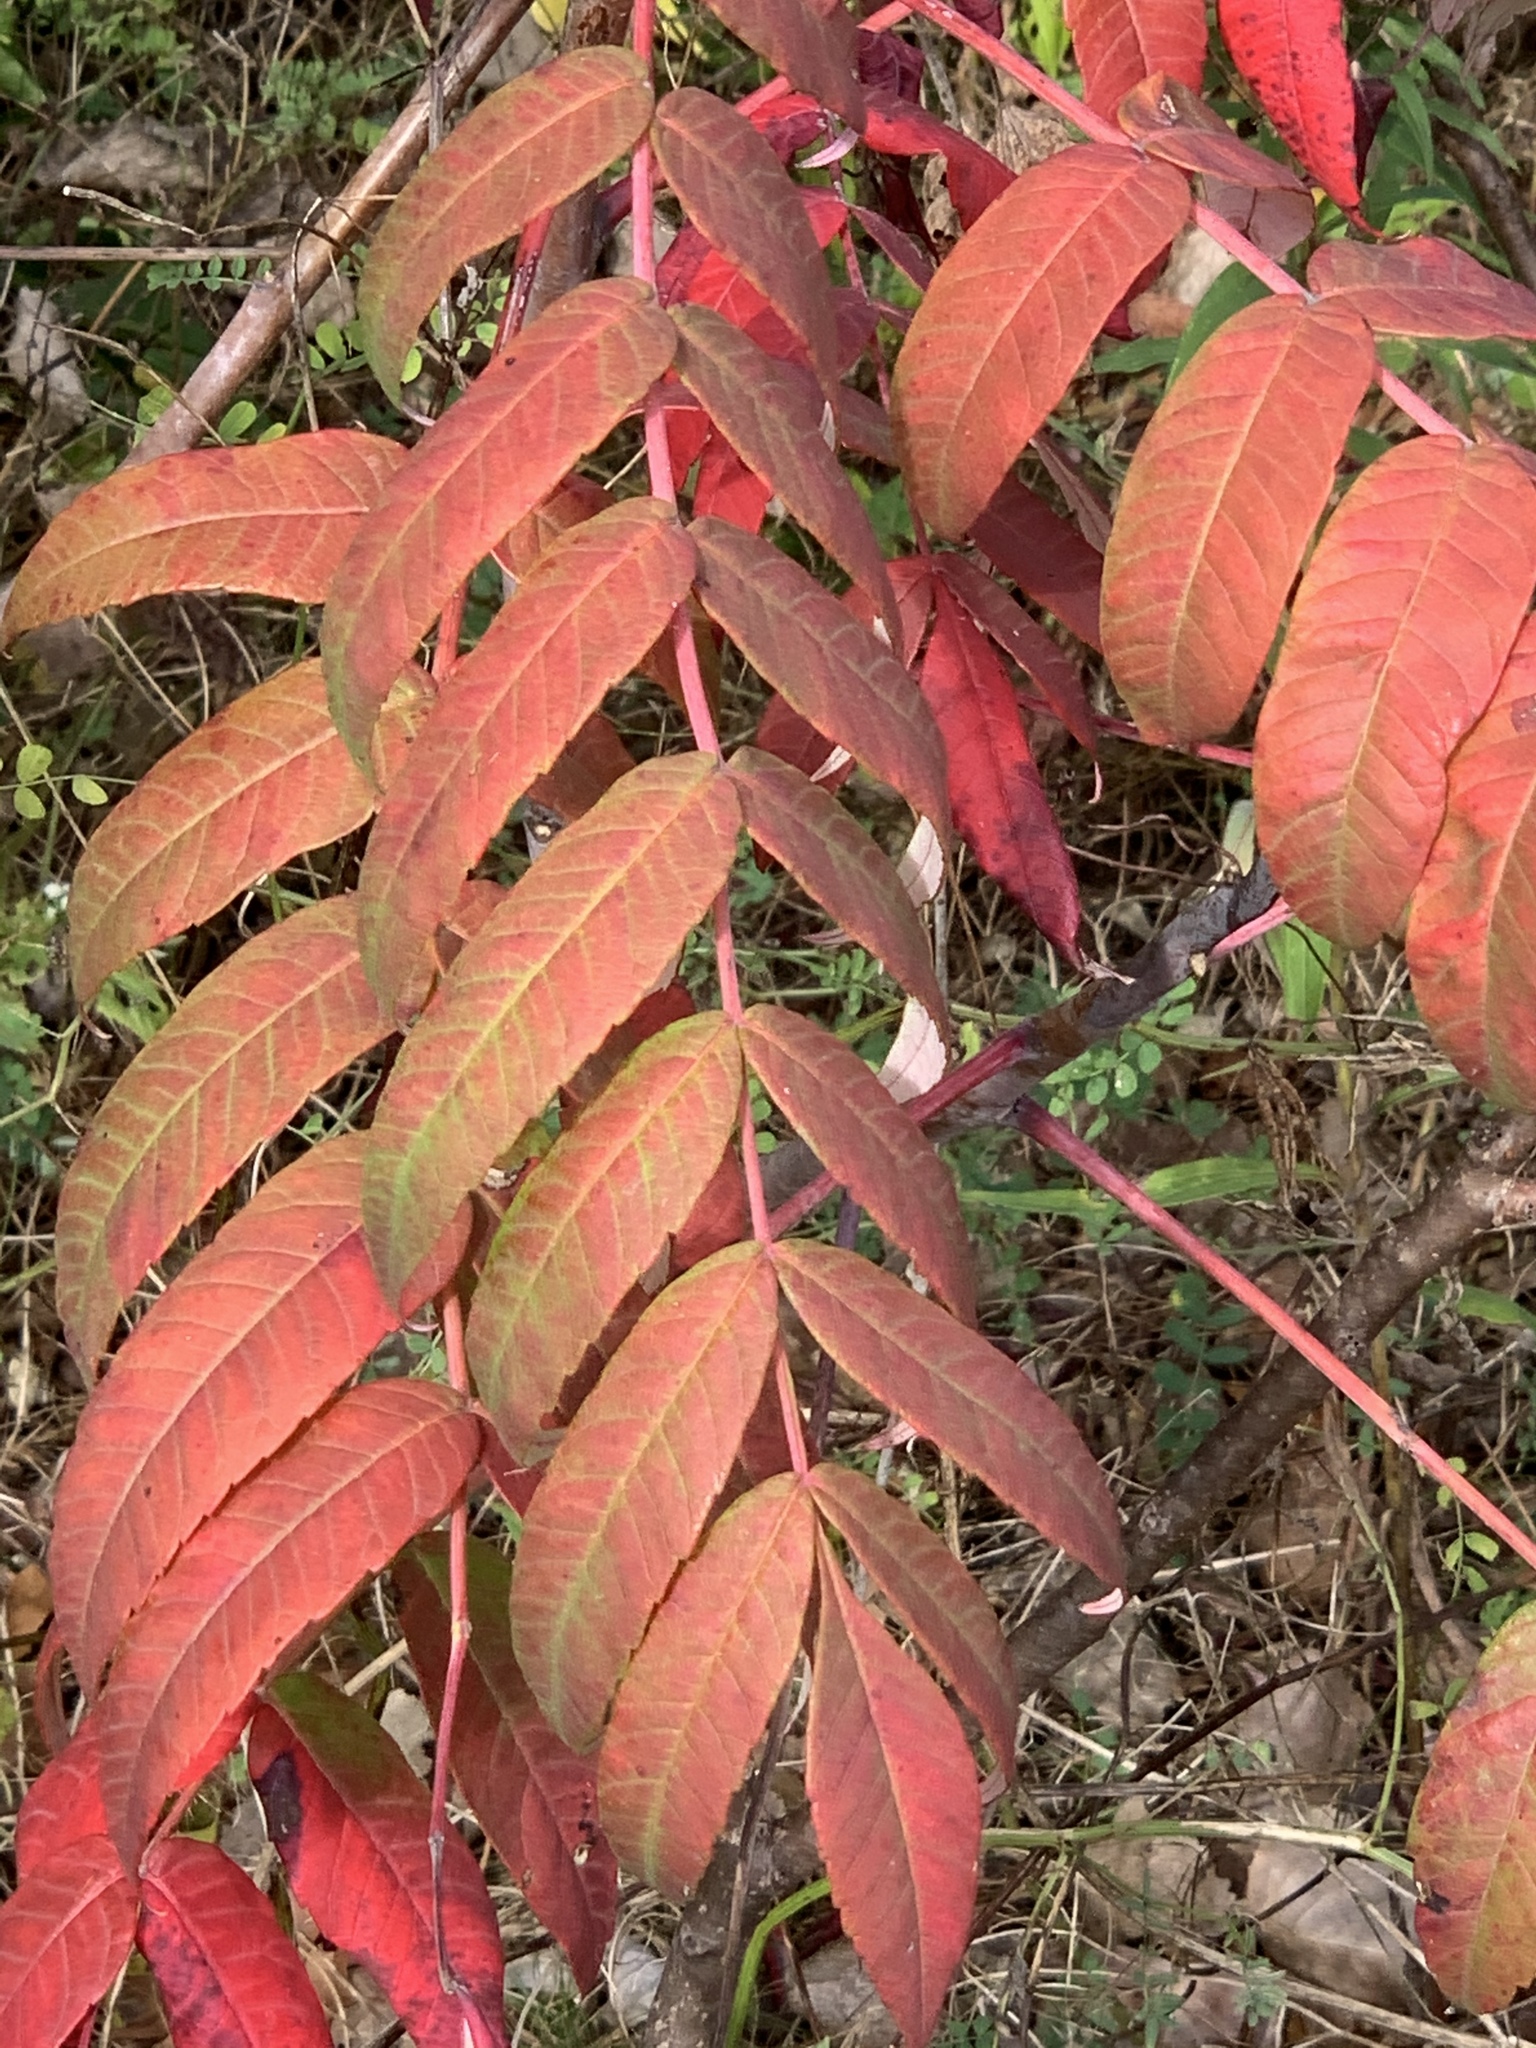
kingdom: Plantae
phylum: Tracheophyta
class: Magnoliopsida
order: Sapindales
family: Anacardiaceae
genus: Rhus
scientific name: Rhus glabra
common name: Scarlet sumac
